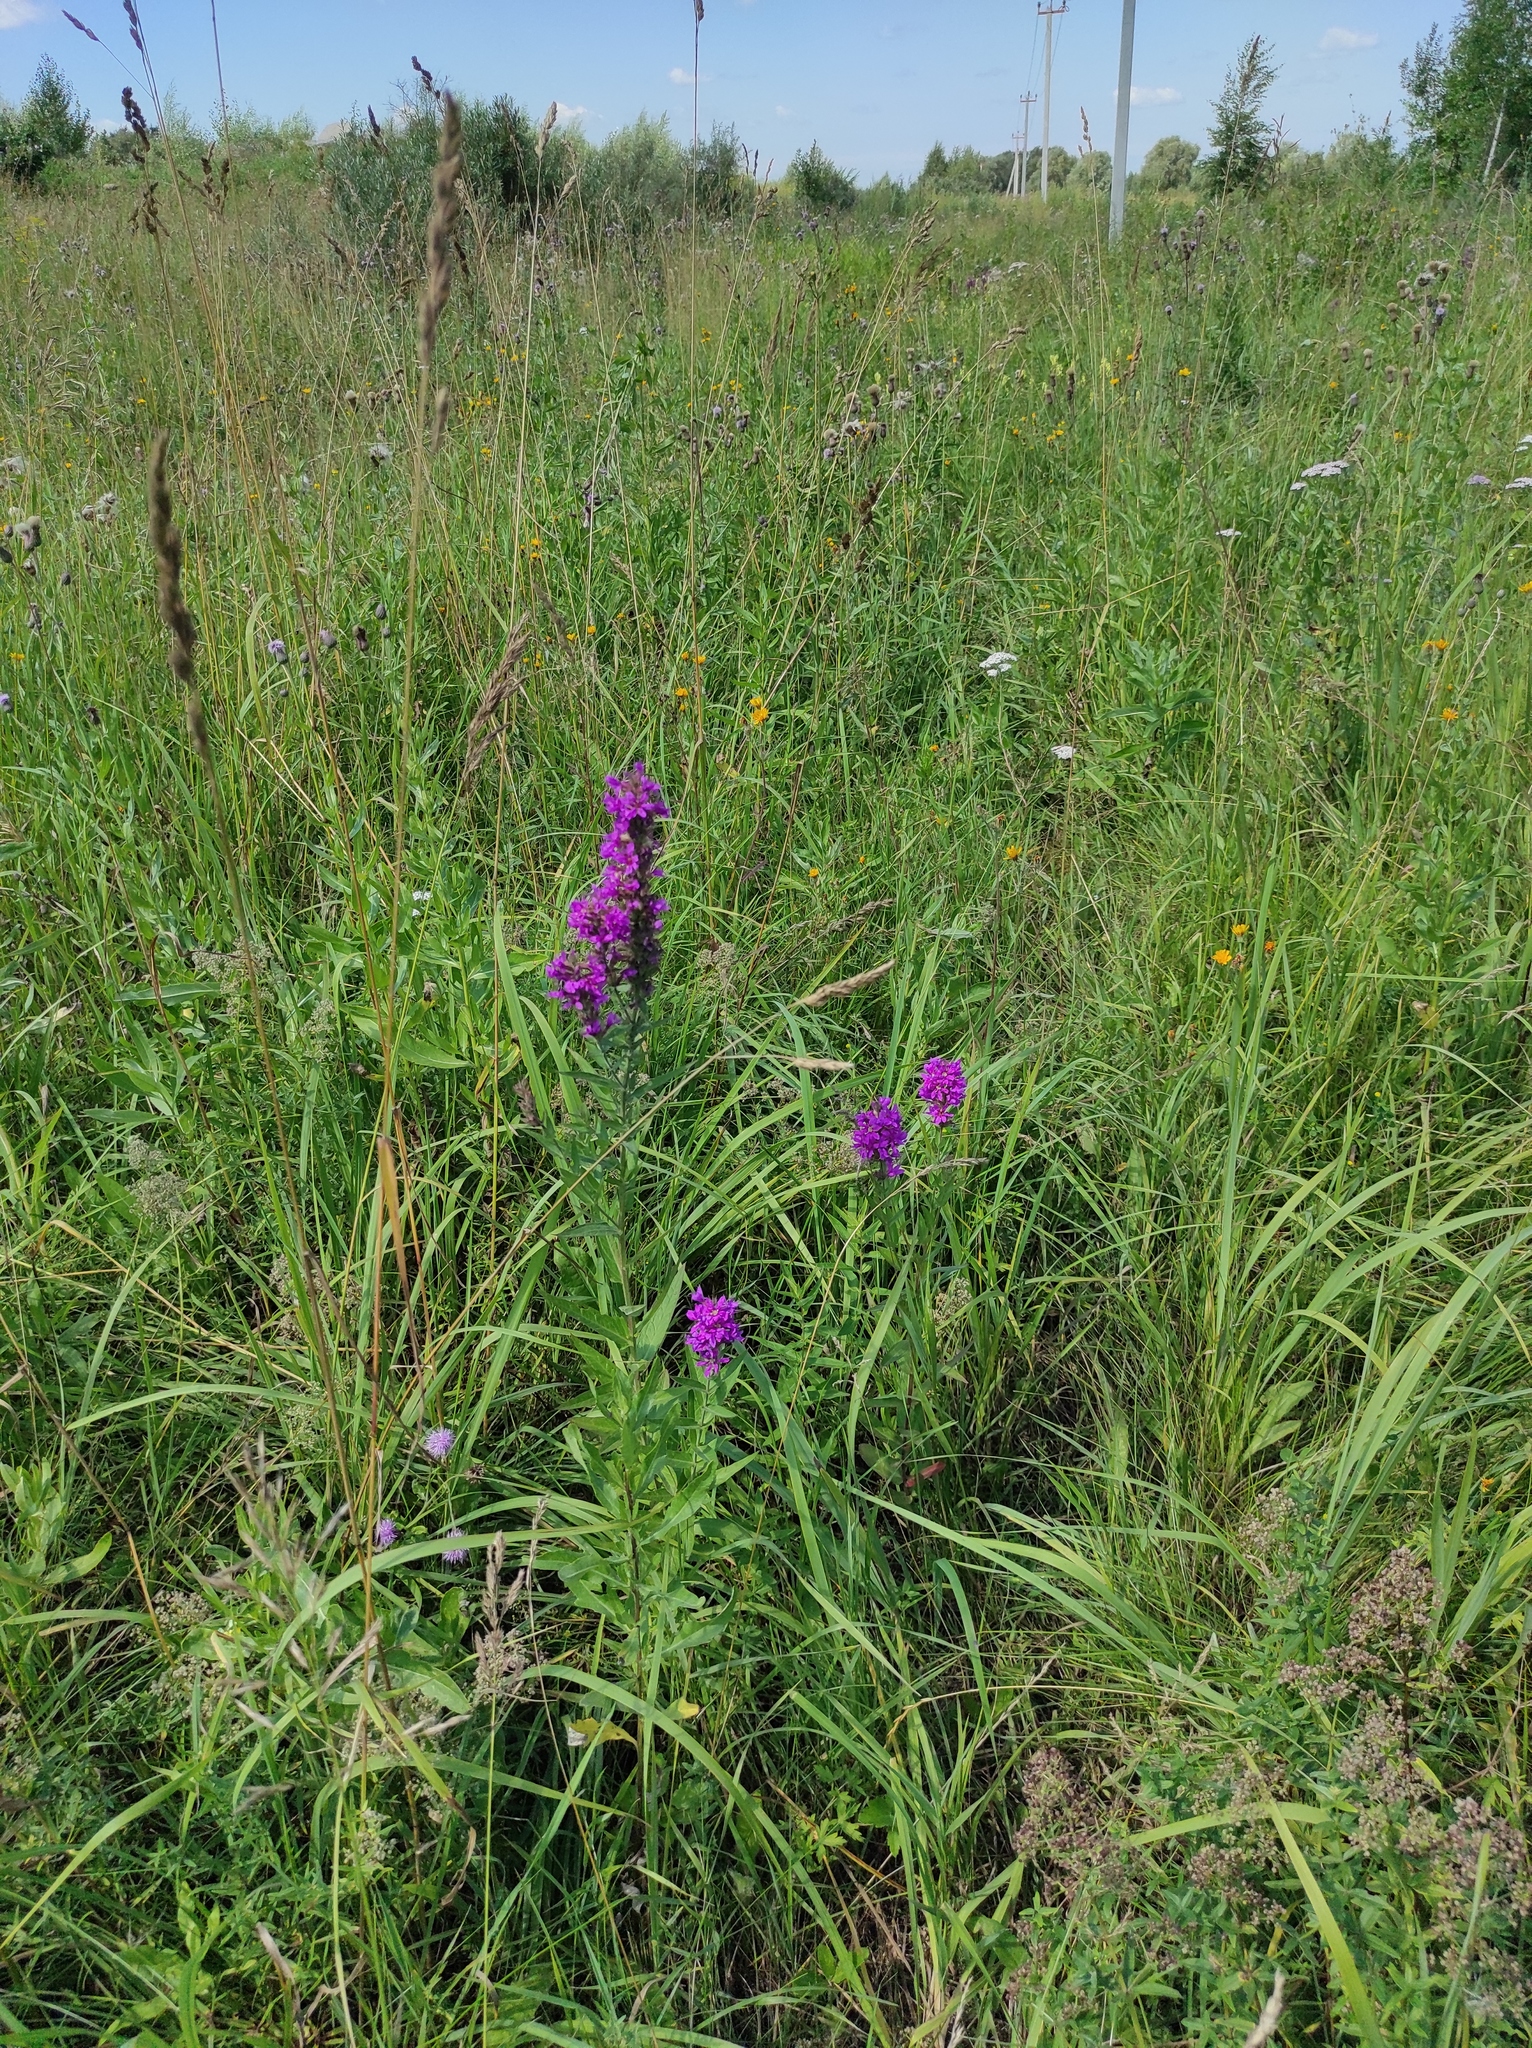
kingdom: Plantae
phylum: Tracheophyta
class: Magnoliopsida
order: Myrtales
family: Lythraceae
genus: Lythrum
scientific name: Lythrum salicaria
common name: Purple loosestrife
